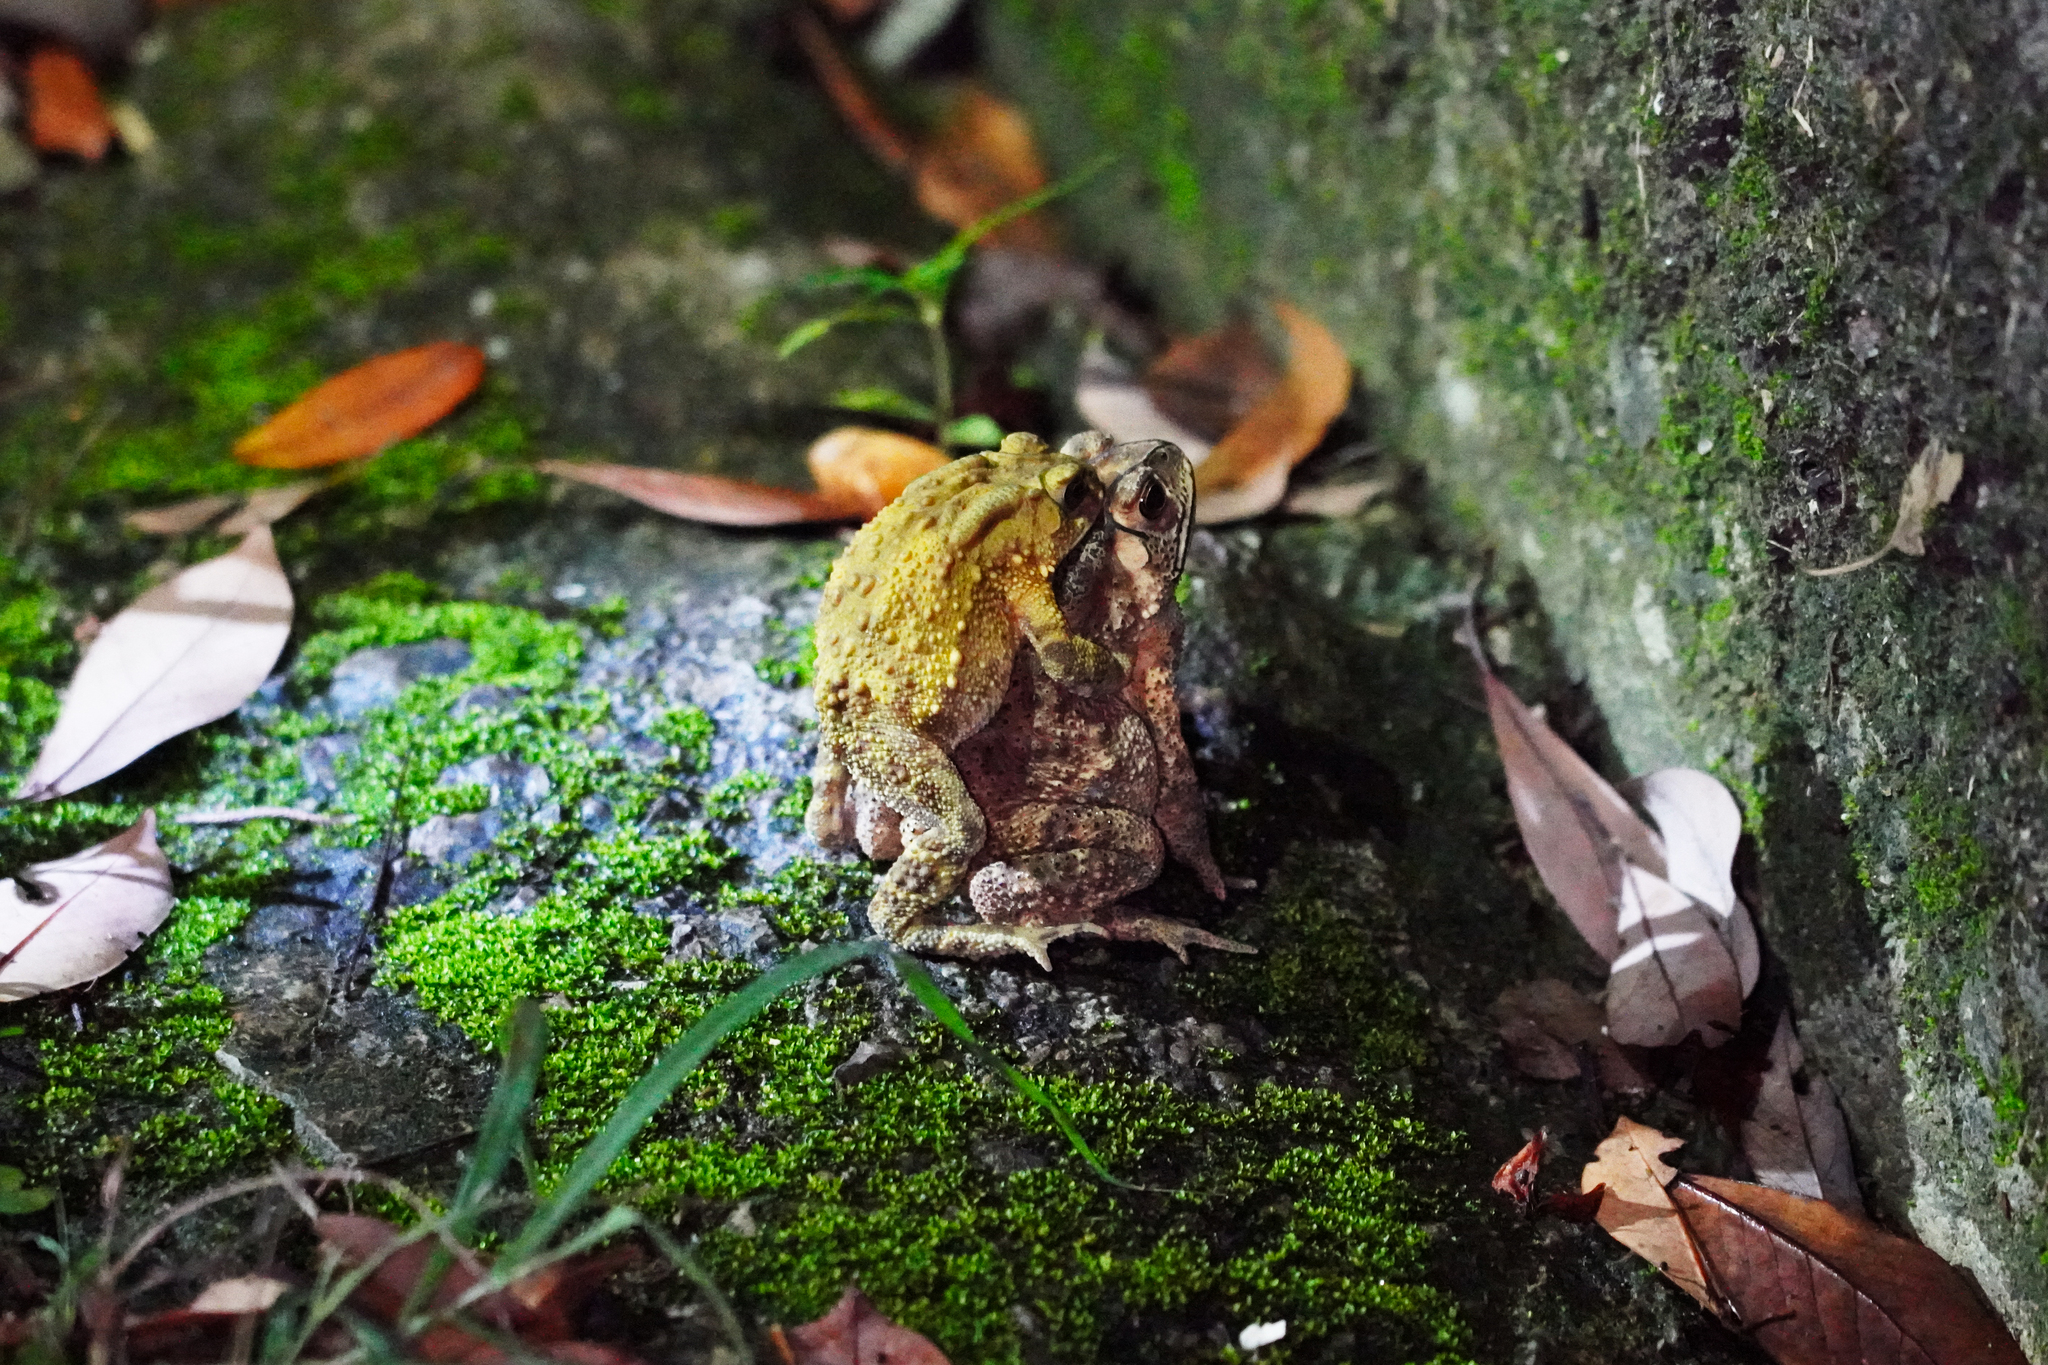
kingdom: Animalia
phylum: Chordata
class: Amphibia
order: Anura
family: Bufonidae
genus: Duttaphrynus
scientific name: Duttaphrynus melanostictus
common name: Common sunda toad
